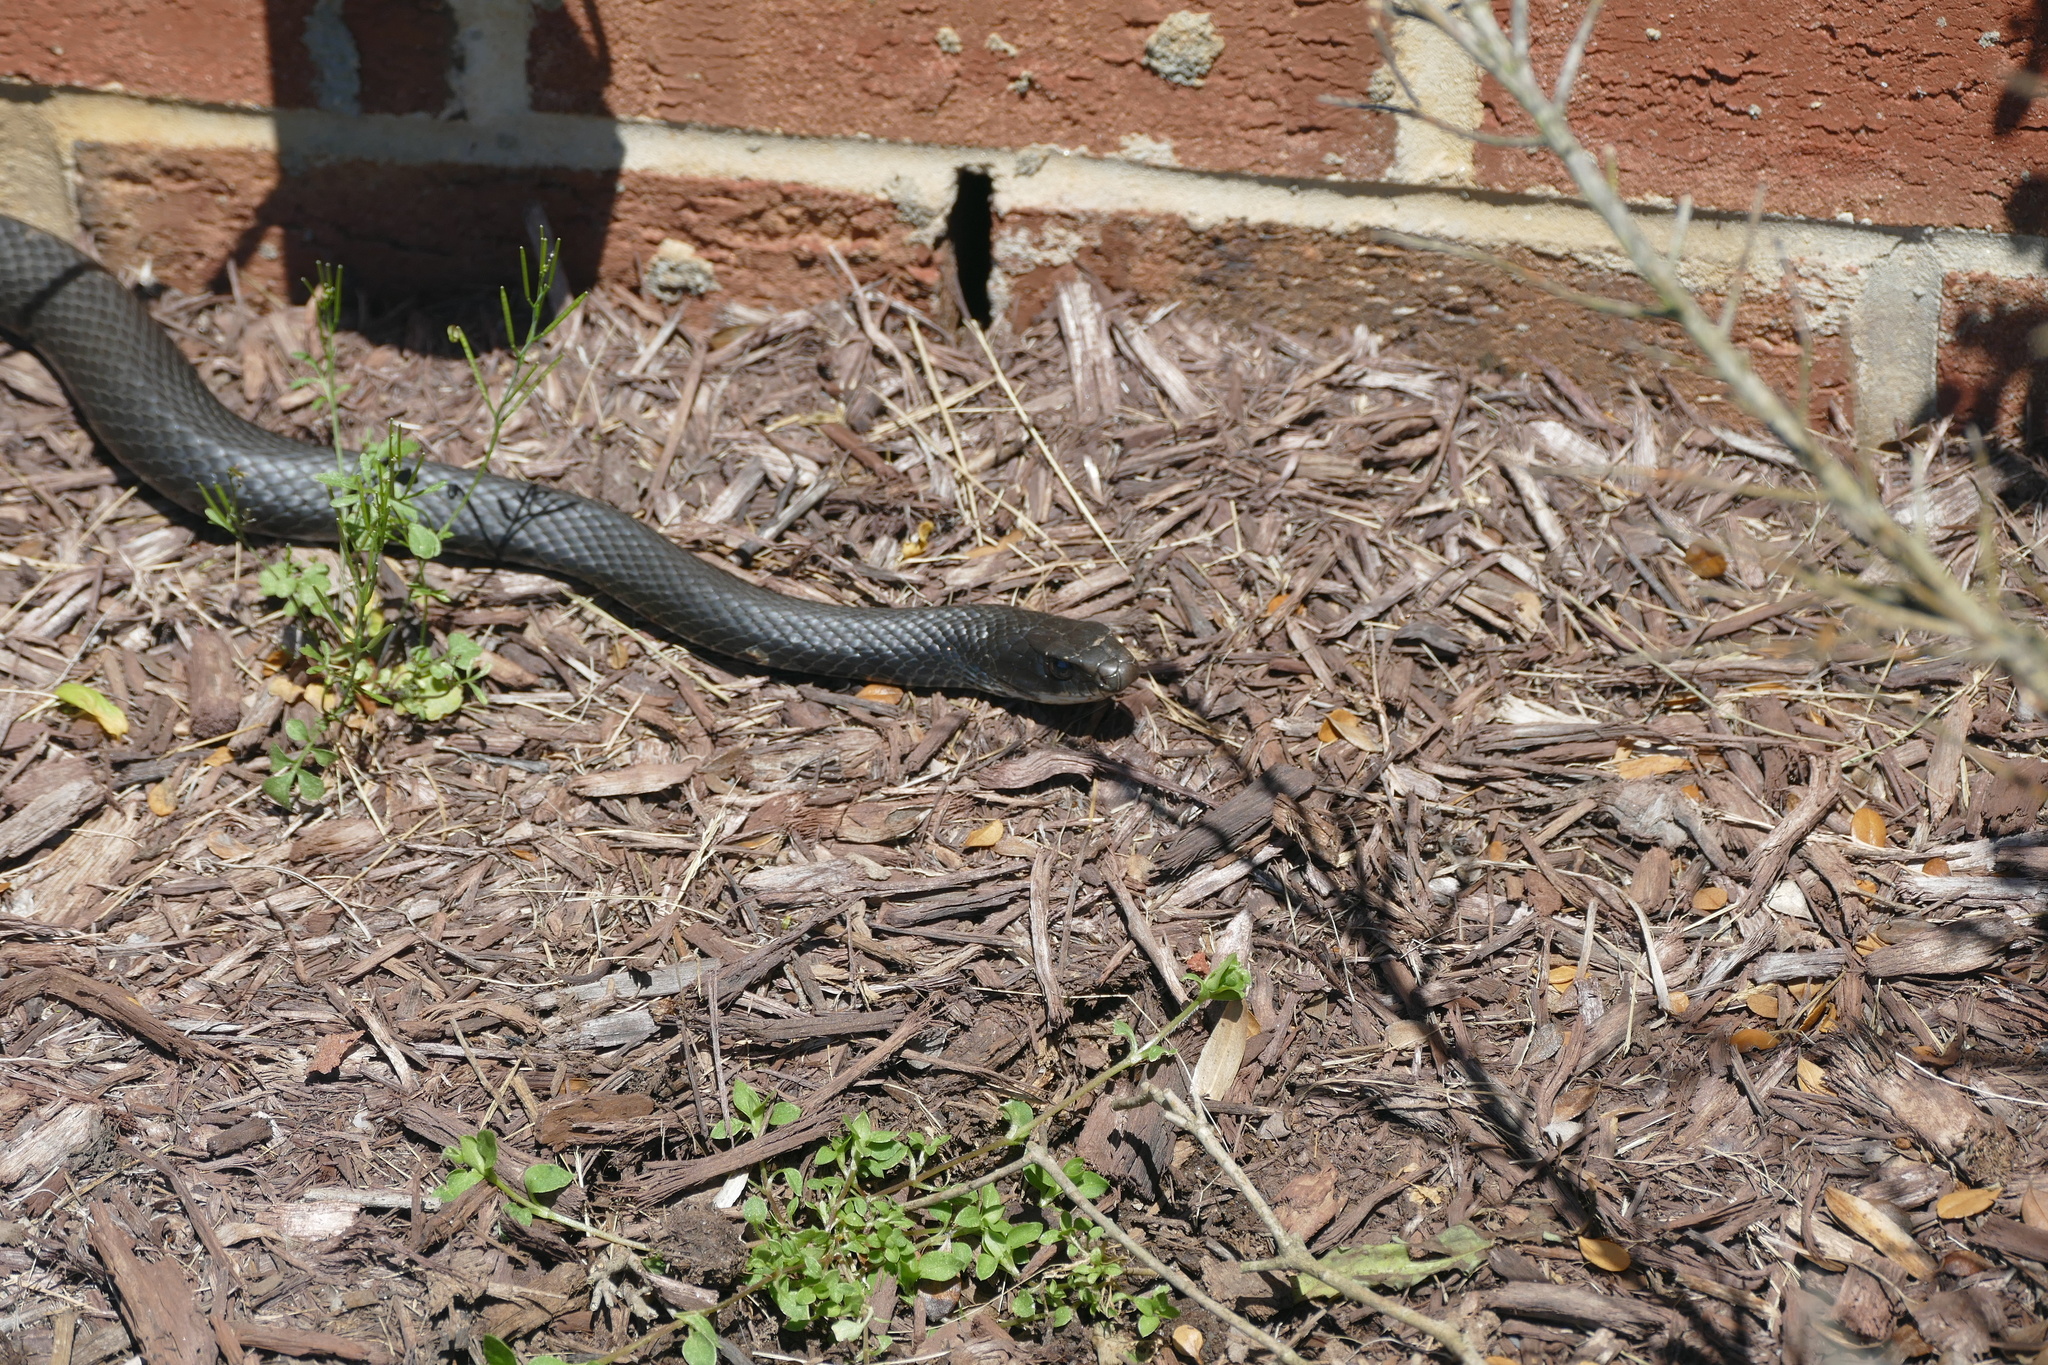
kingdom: Animalia
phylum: Chordata
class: Squamata
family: Colubridae
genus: Coluber
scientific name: Coluber constrictor
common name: Eastern racer
